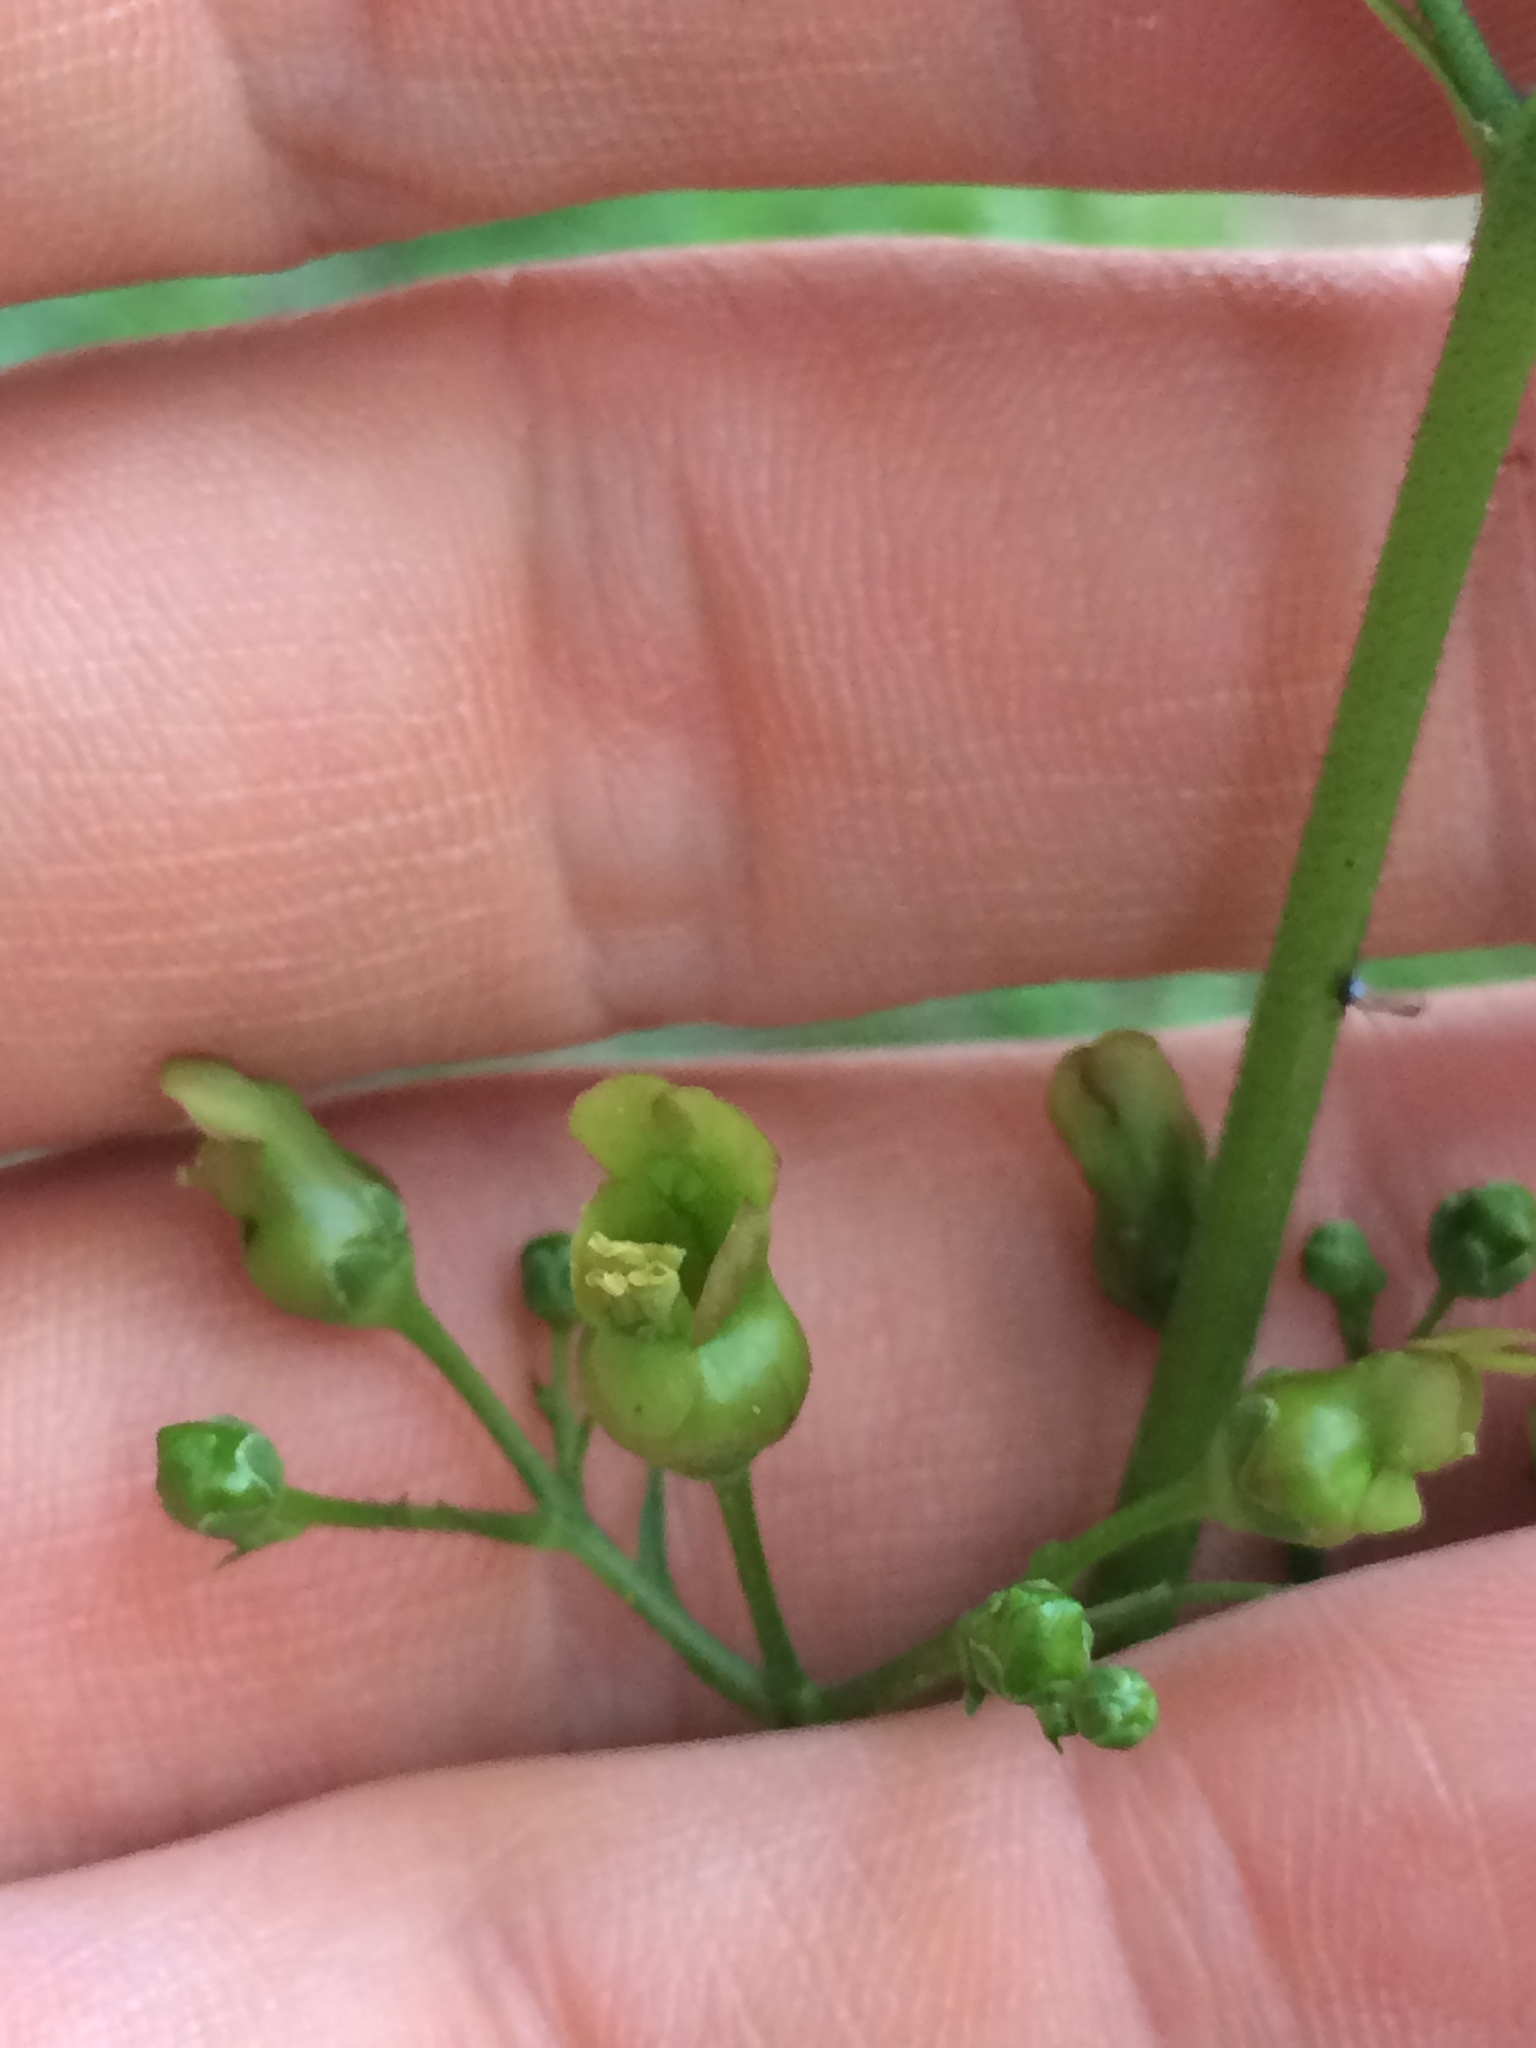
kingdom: Plantae
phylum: Tracheophyta
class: Magnoliopsida
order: Lamiales
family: Scrophulariaceae
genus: Scrophularia
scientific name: Scrophularia lanceolata
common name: American figwort
